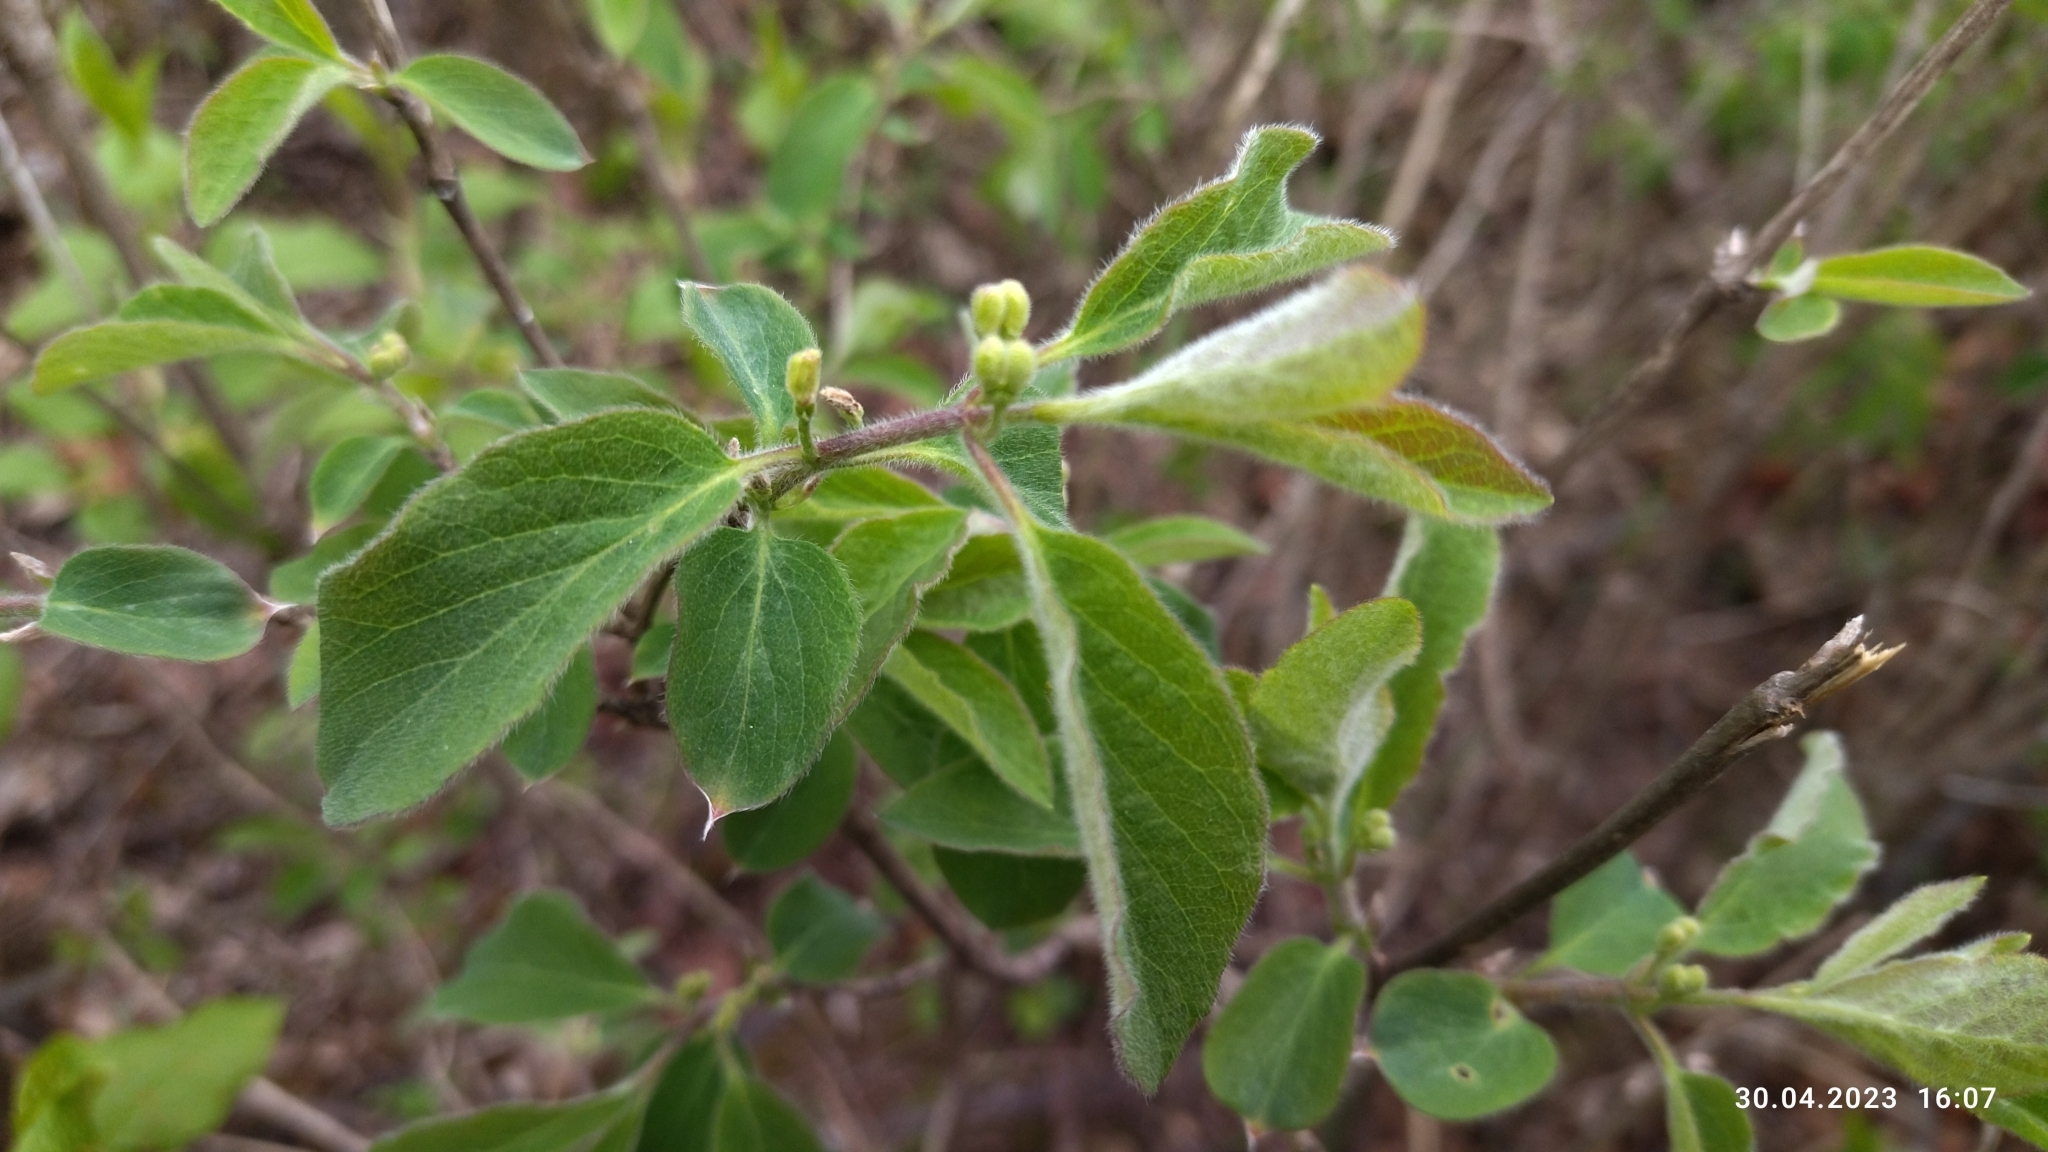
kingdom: Plantae
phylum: Tracheophyta
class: Magnoliopsida
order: Dipsacales
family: Caprifoliaceae
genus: Lonicera
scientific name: Lonicera xylosteum
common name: Fly honeysuckle
